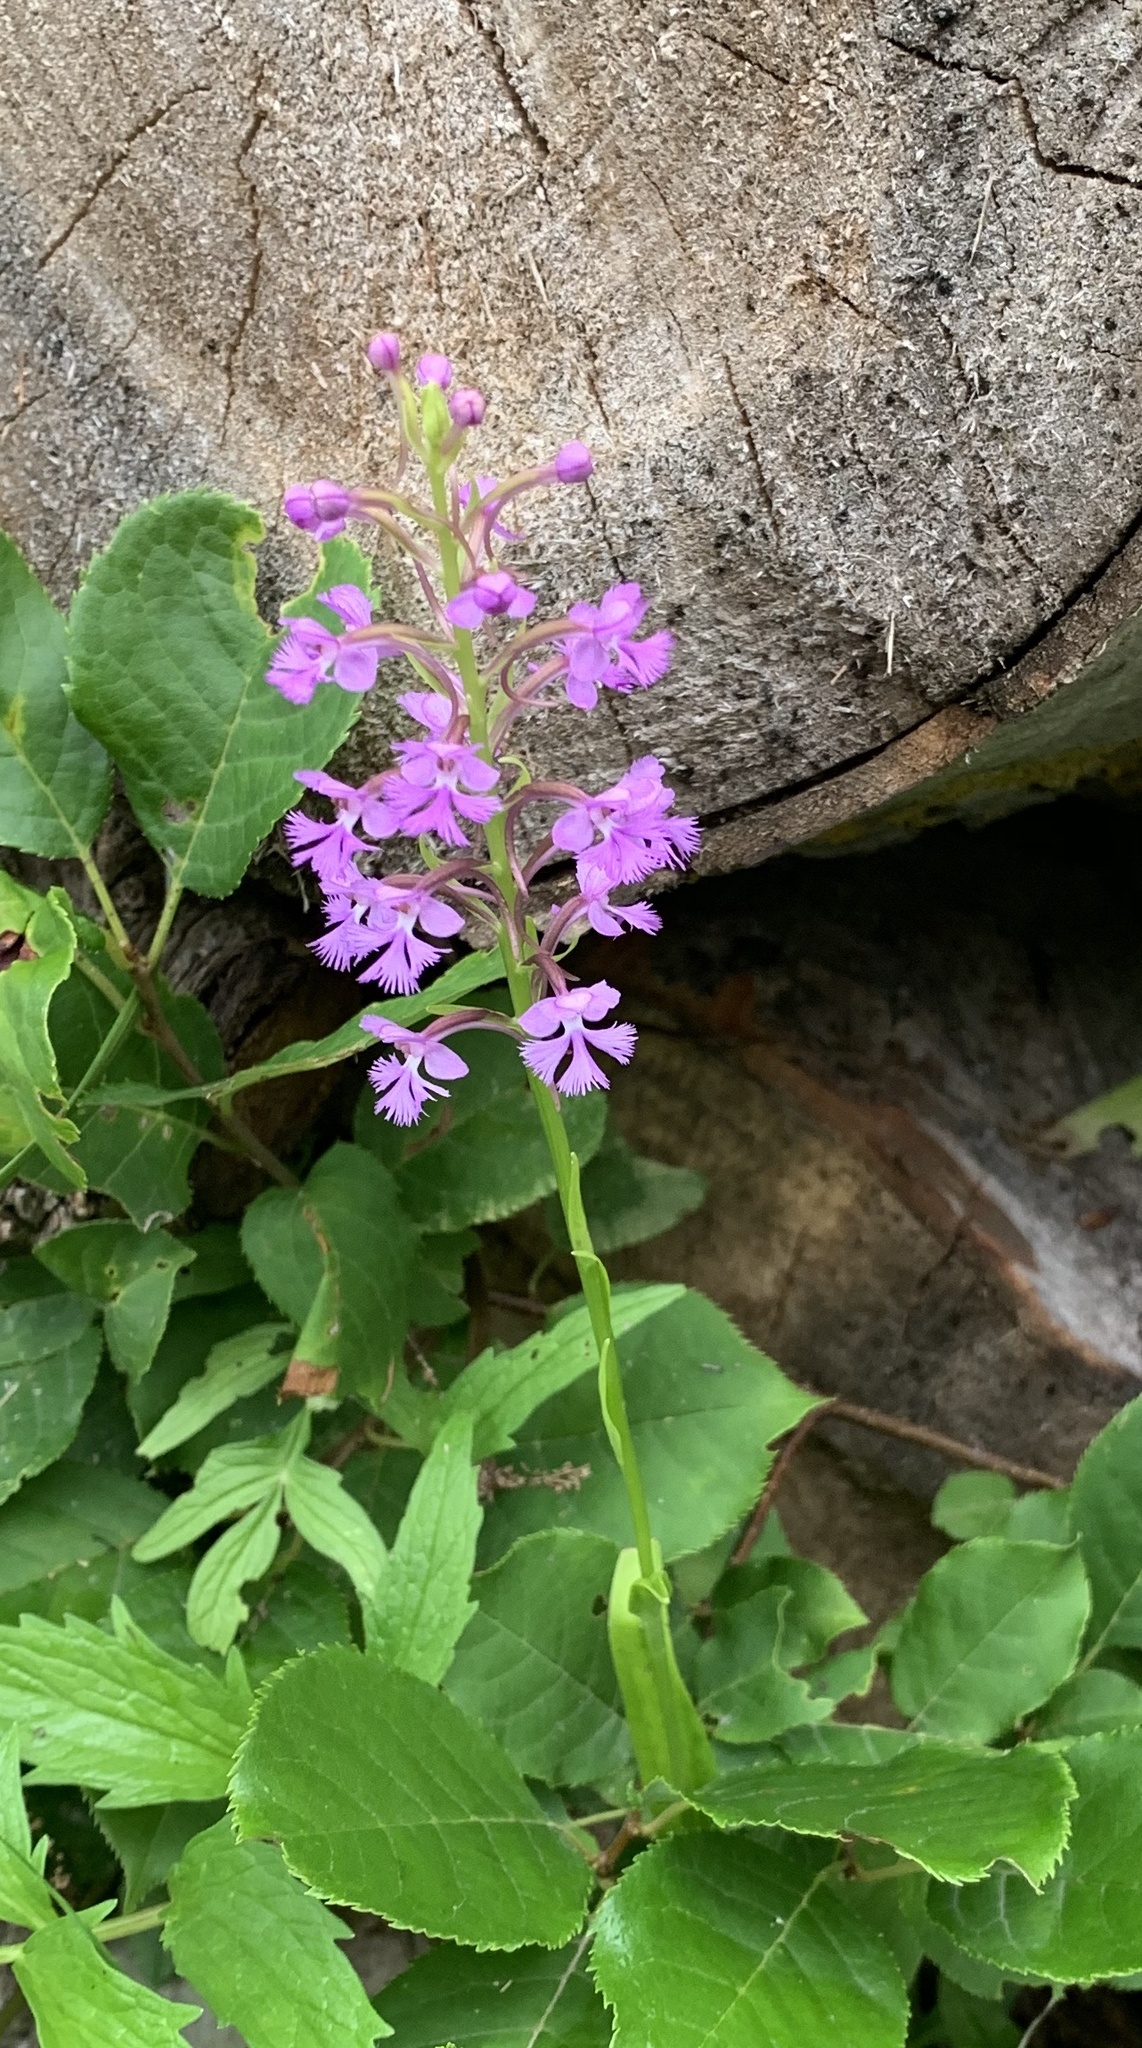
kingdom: Plantae
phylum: Tracheophyta
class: Liliopsida
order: Asparagales
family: Orchidaceae
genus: Platanthera
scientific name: Platanthera psycodes
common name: Lesser purple fringed orchid
